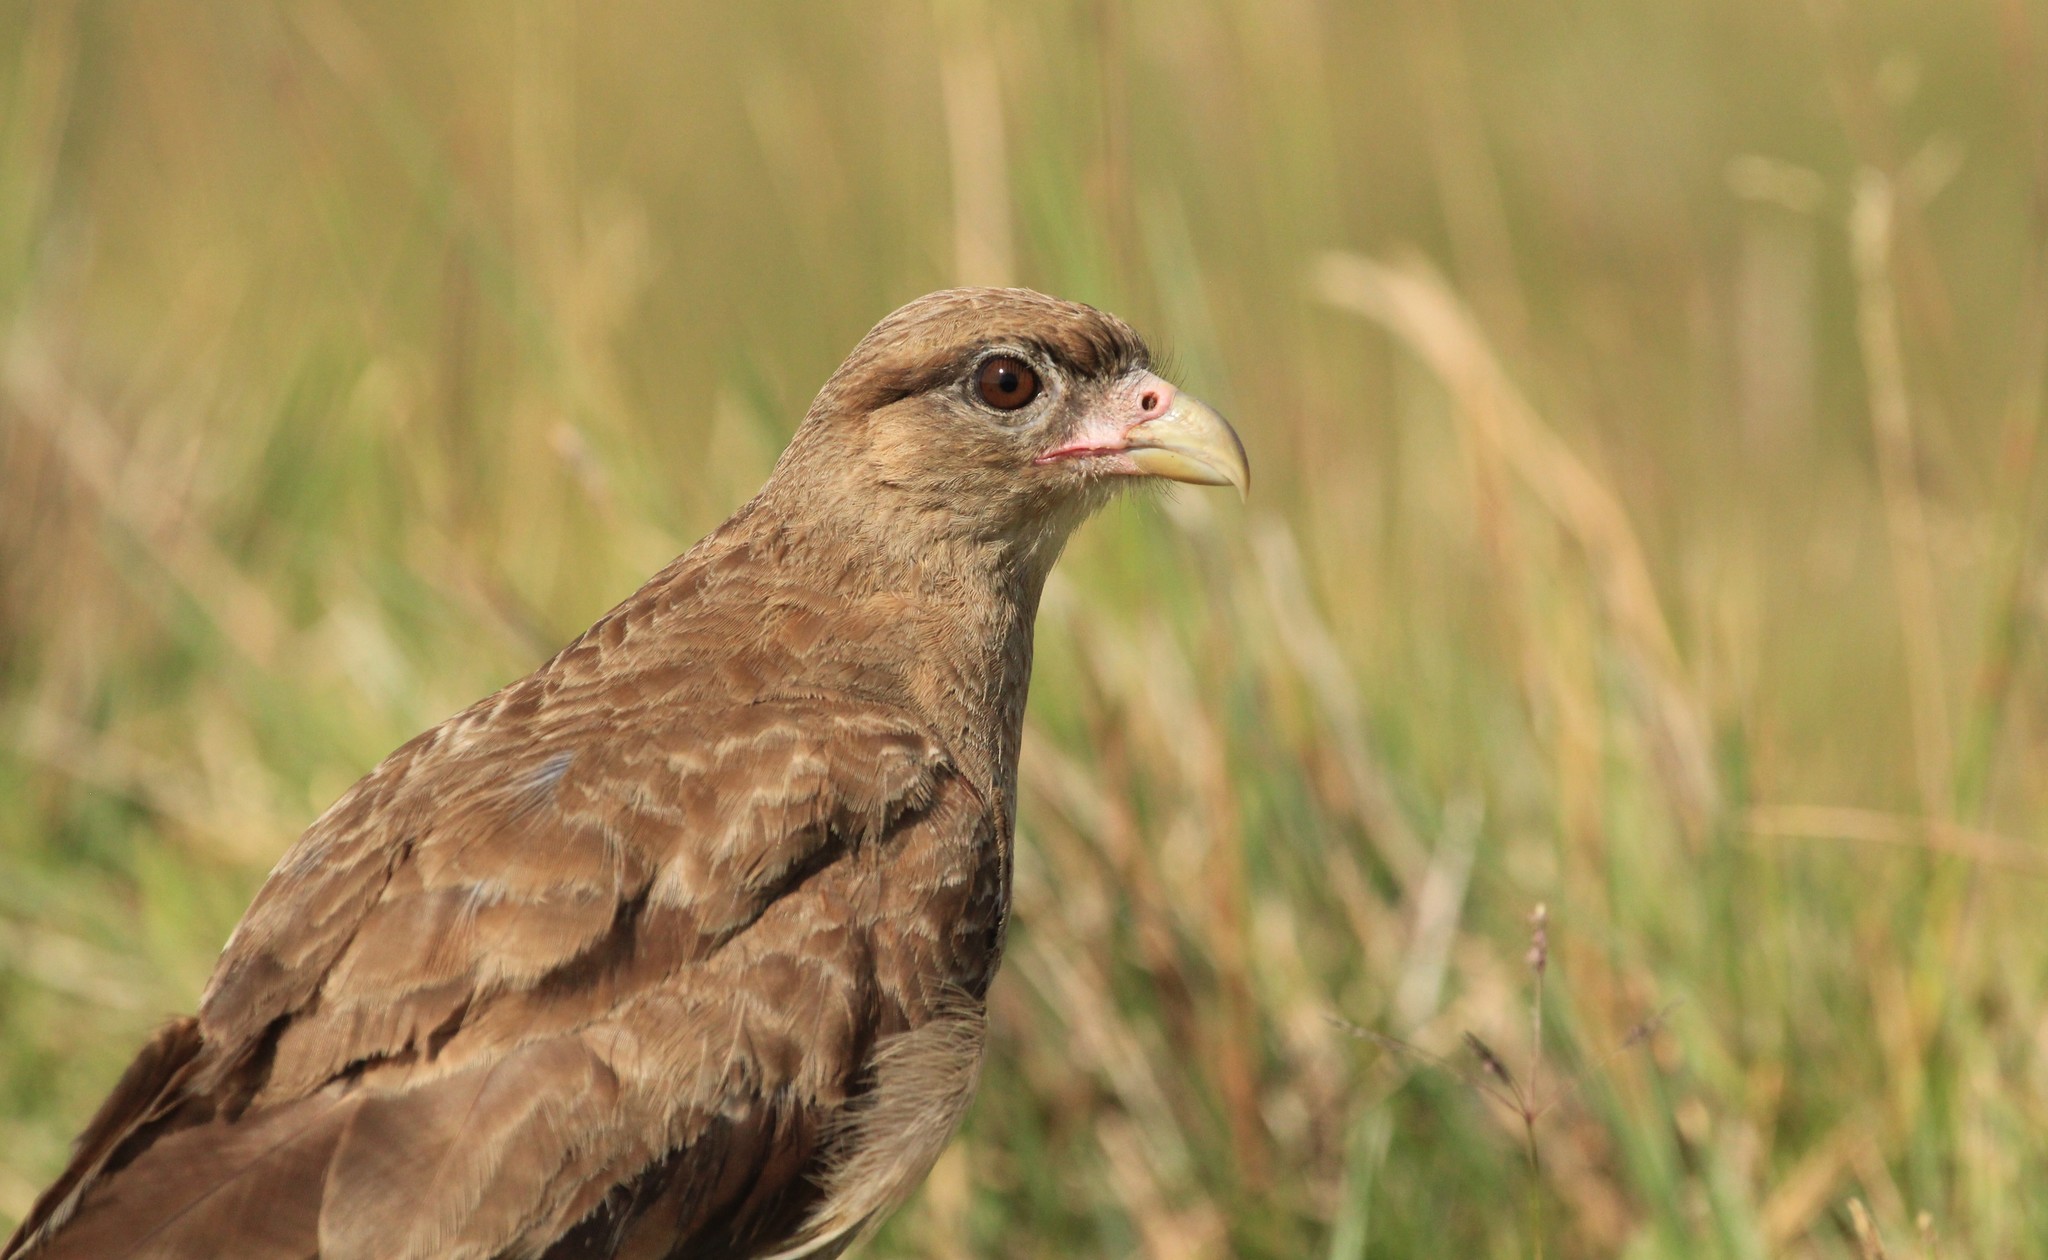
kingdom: Animalia
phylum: Chordata
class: Aves
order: Falconiformes
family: Falconidae
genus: Daptrius
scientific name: Daptrius
